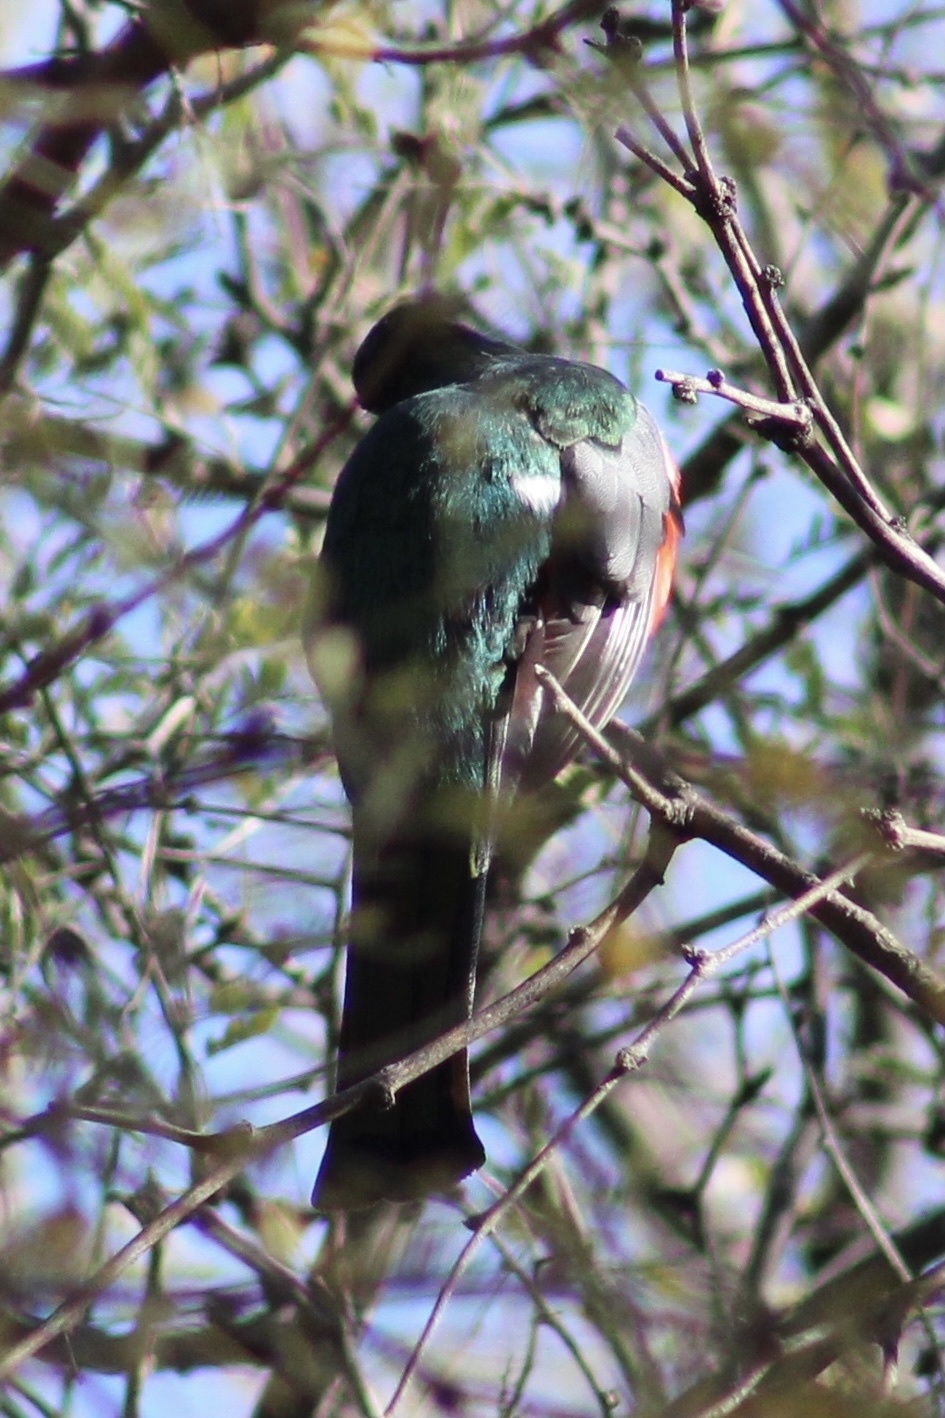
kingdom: Animalia
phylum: Chordata
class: Aves
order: Trogoniformes
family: Trogonidae
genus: Trogon
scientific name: Trogon elegans
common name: Elegant trogon
